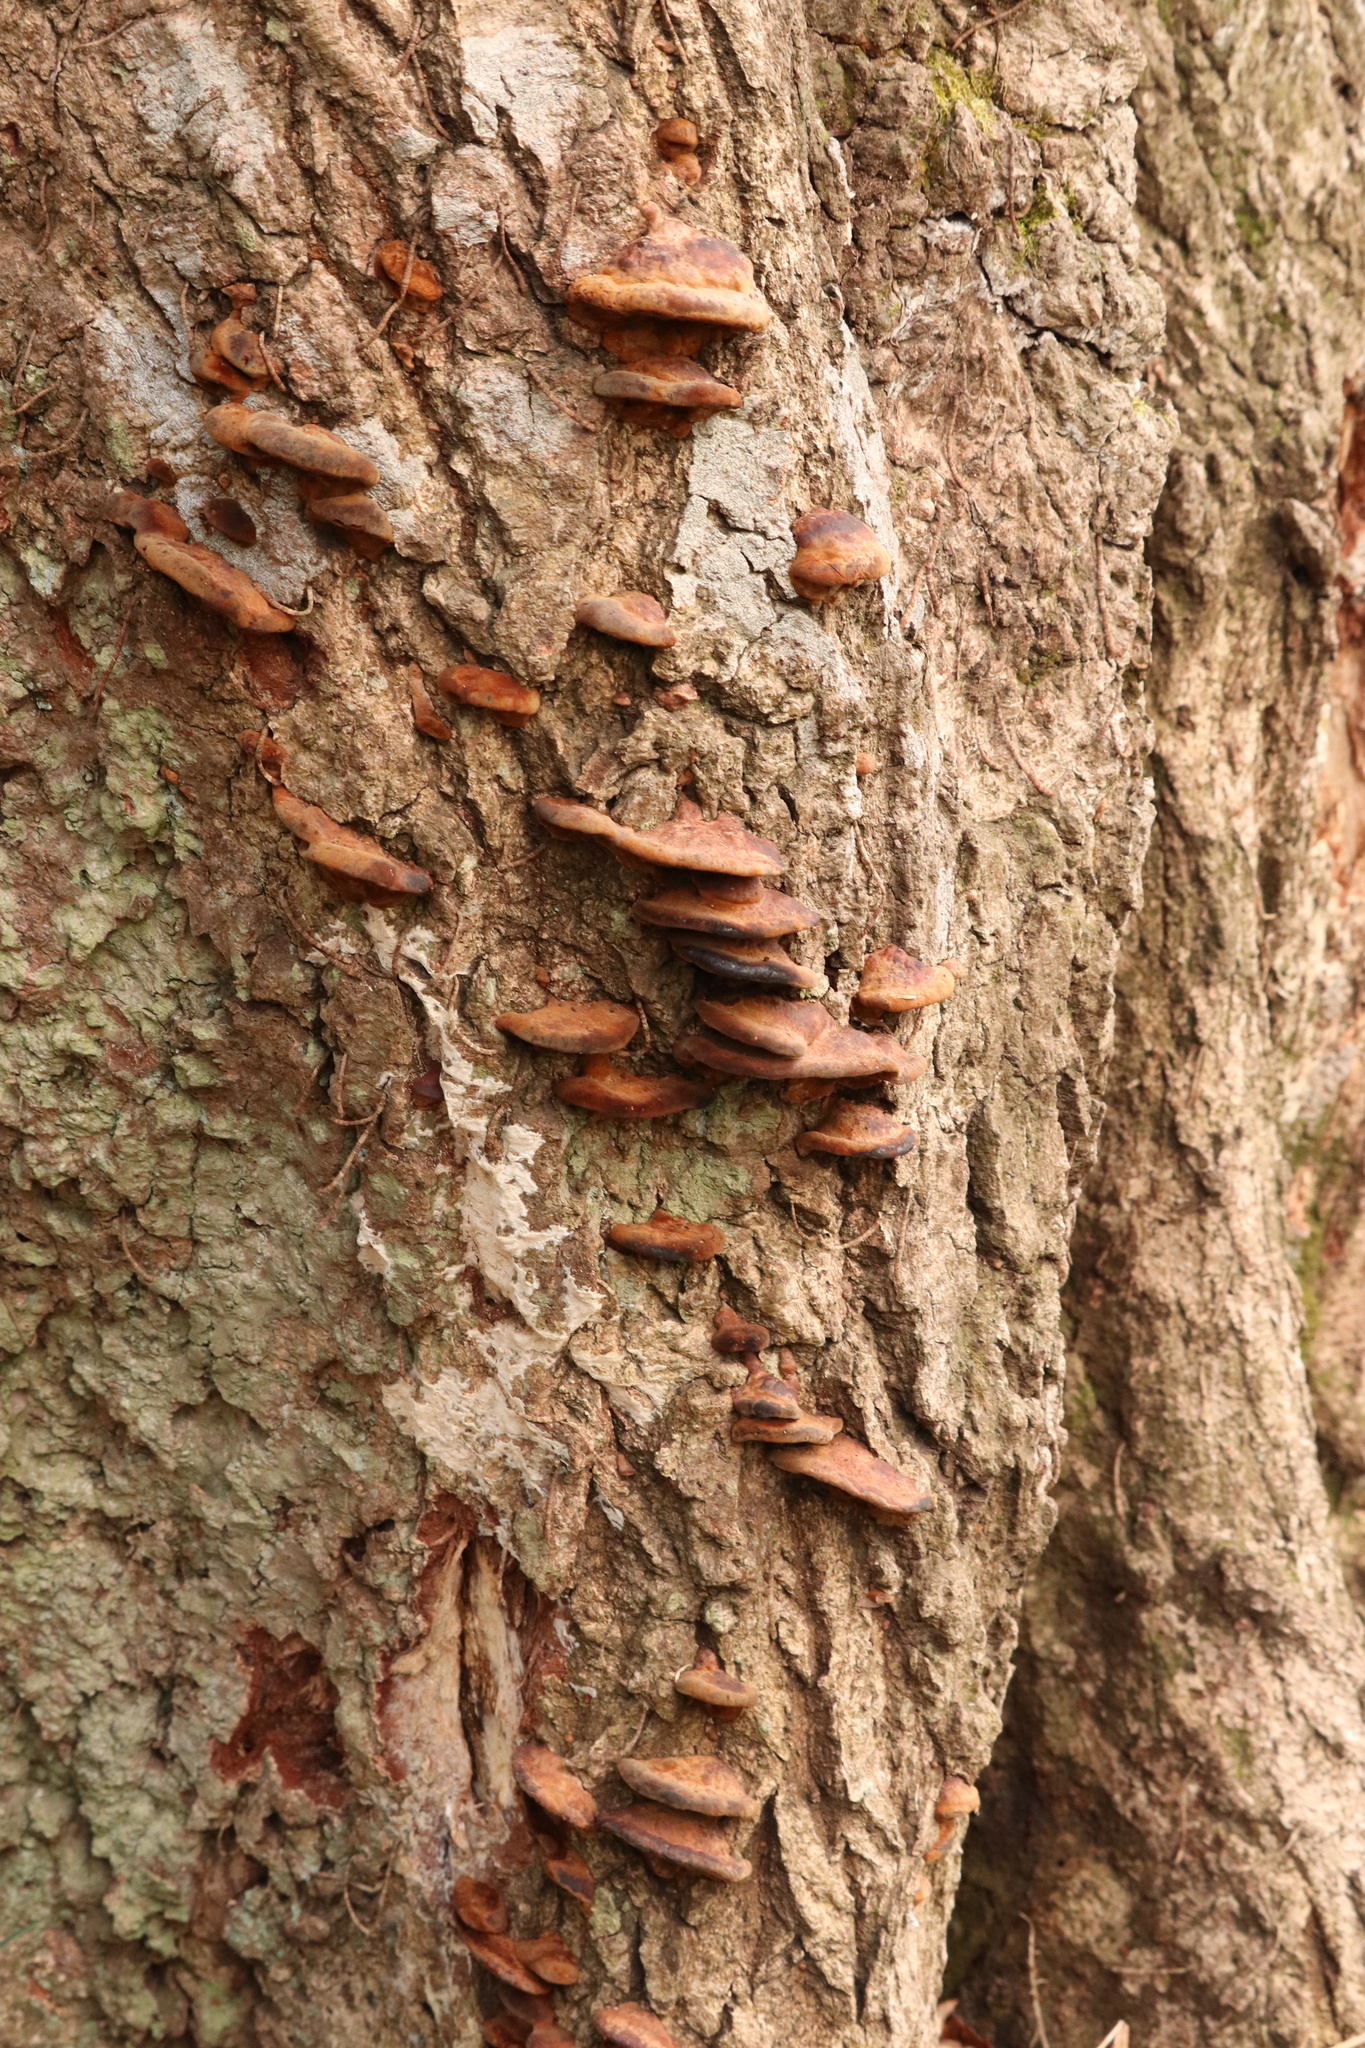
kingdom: Fungi
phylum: Basidiomycota
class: Agaricomycetes
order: Hymenochaetales
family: Hymenochaetaceae
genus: Phellinus
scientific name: Phellinus gilvus
